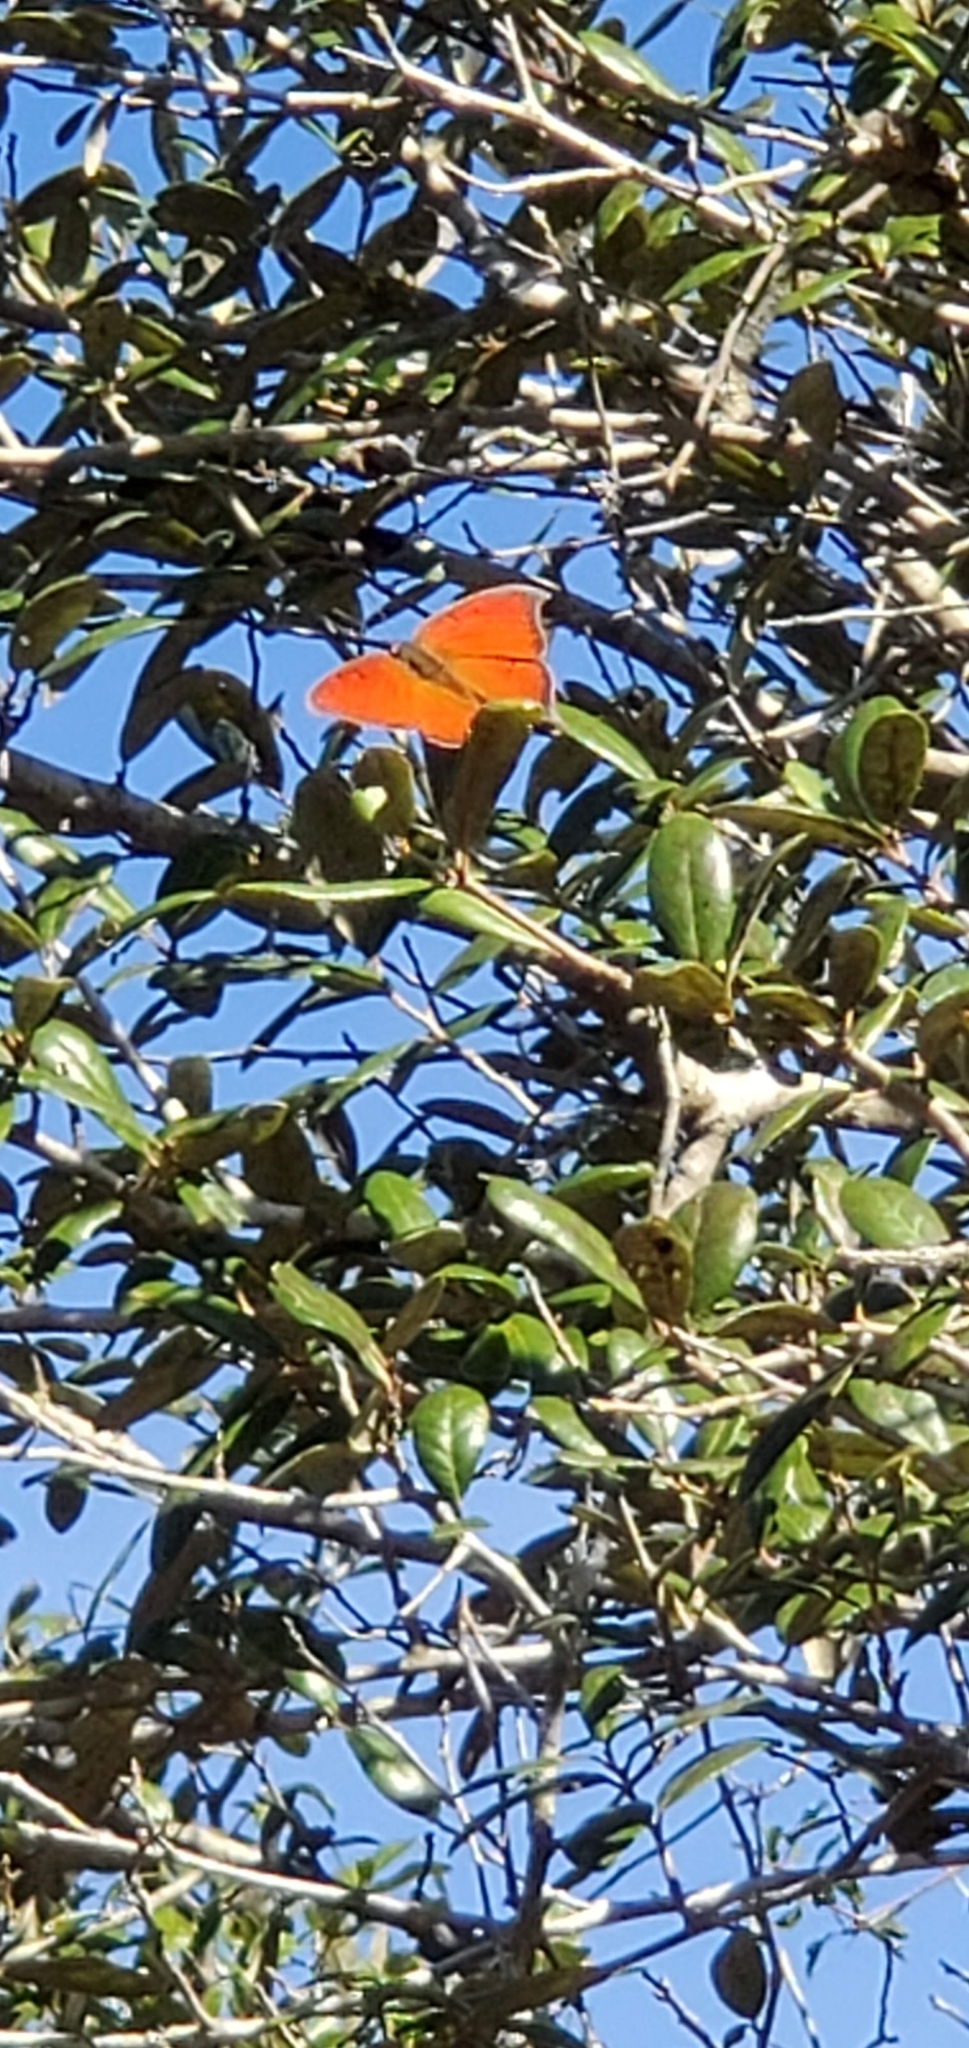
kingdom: Animalia
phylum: Arthropoda
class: Insecta
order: Lepidoptera
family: Nymphalidae
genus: Anaea
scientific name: Anaea andria
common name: Goatweed leafwing
